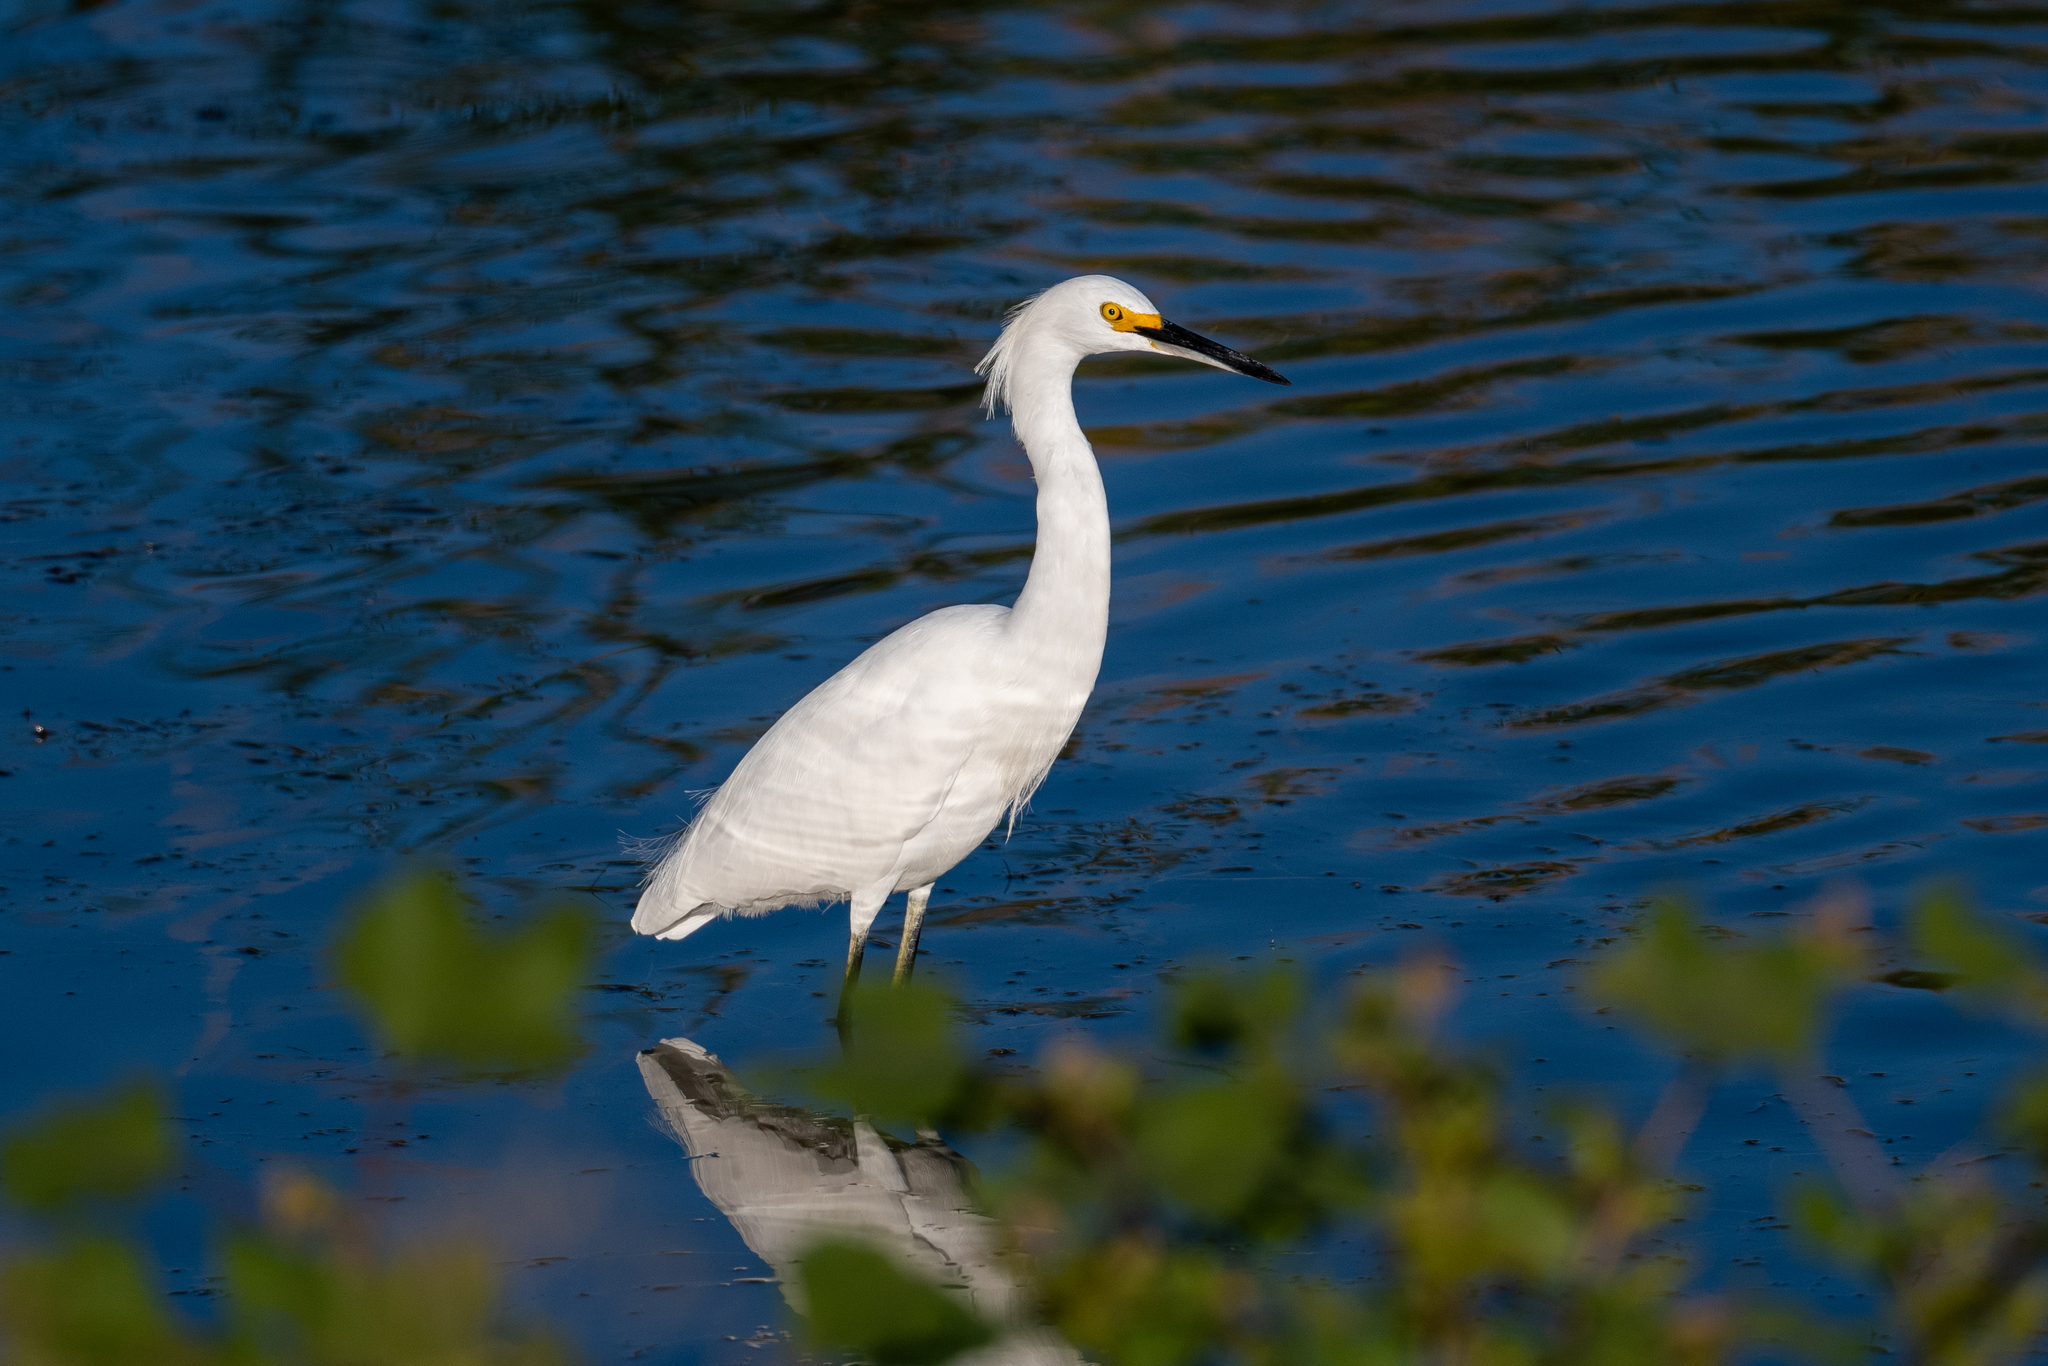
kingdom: Animalia
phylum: Chordata
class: Aves
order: Pelecaniformes
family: Ardeidae
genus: Egretta
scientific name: Egretta thula
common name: Snowy egret
